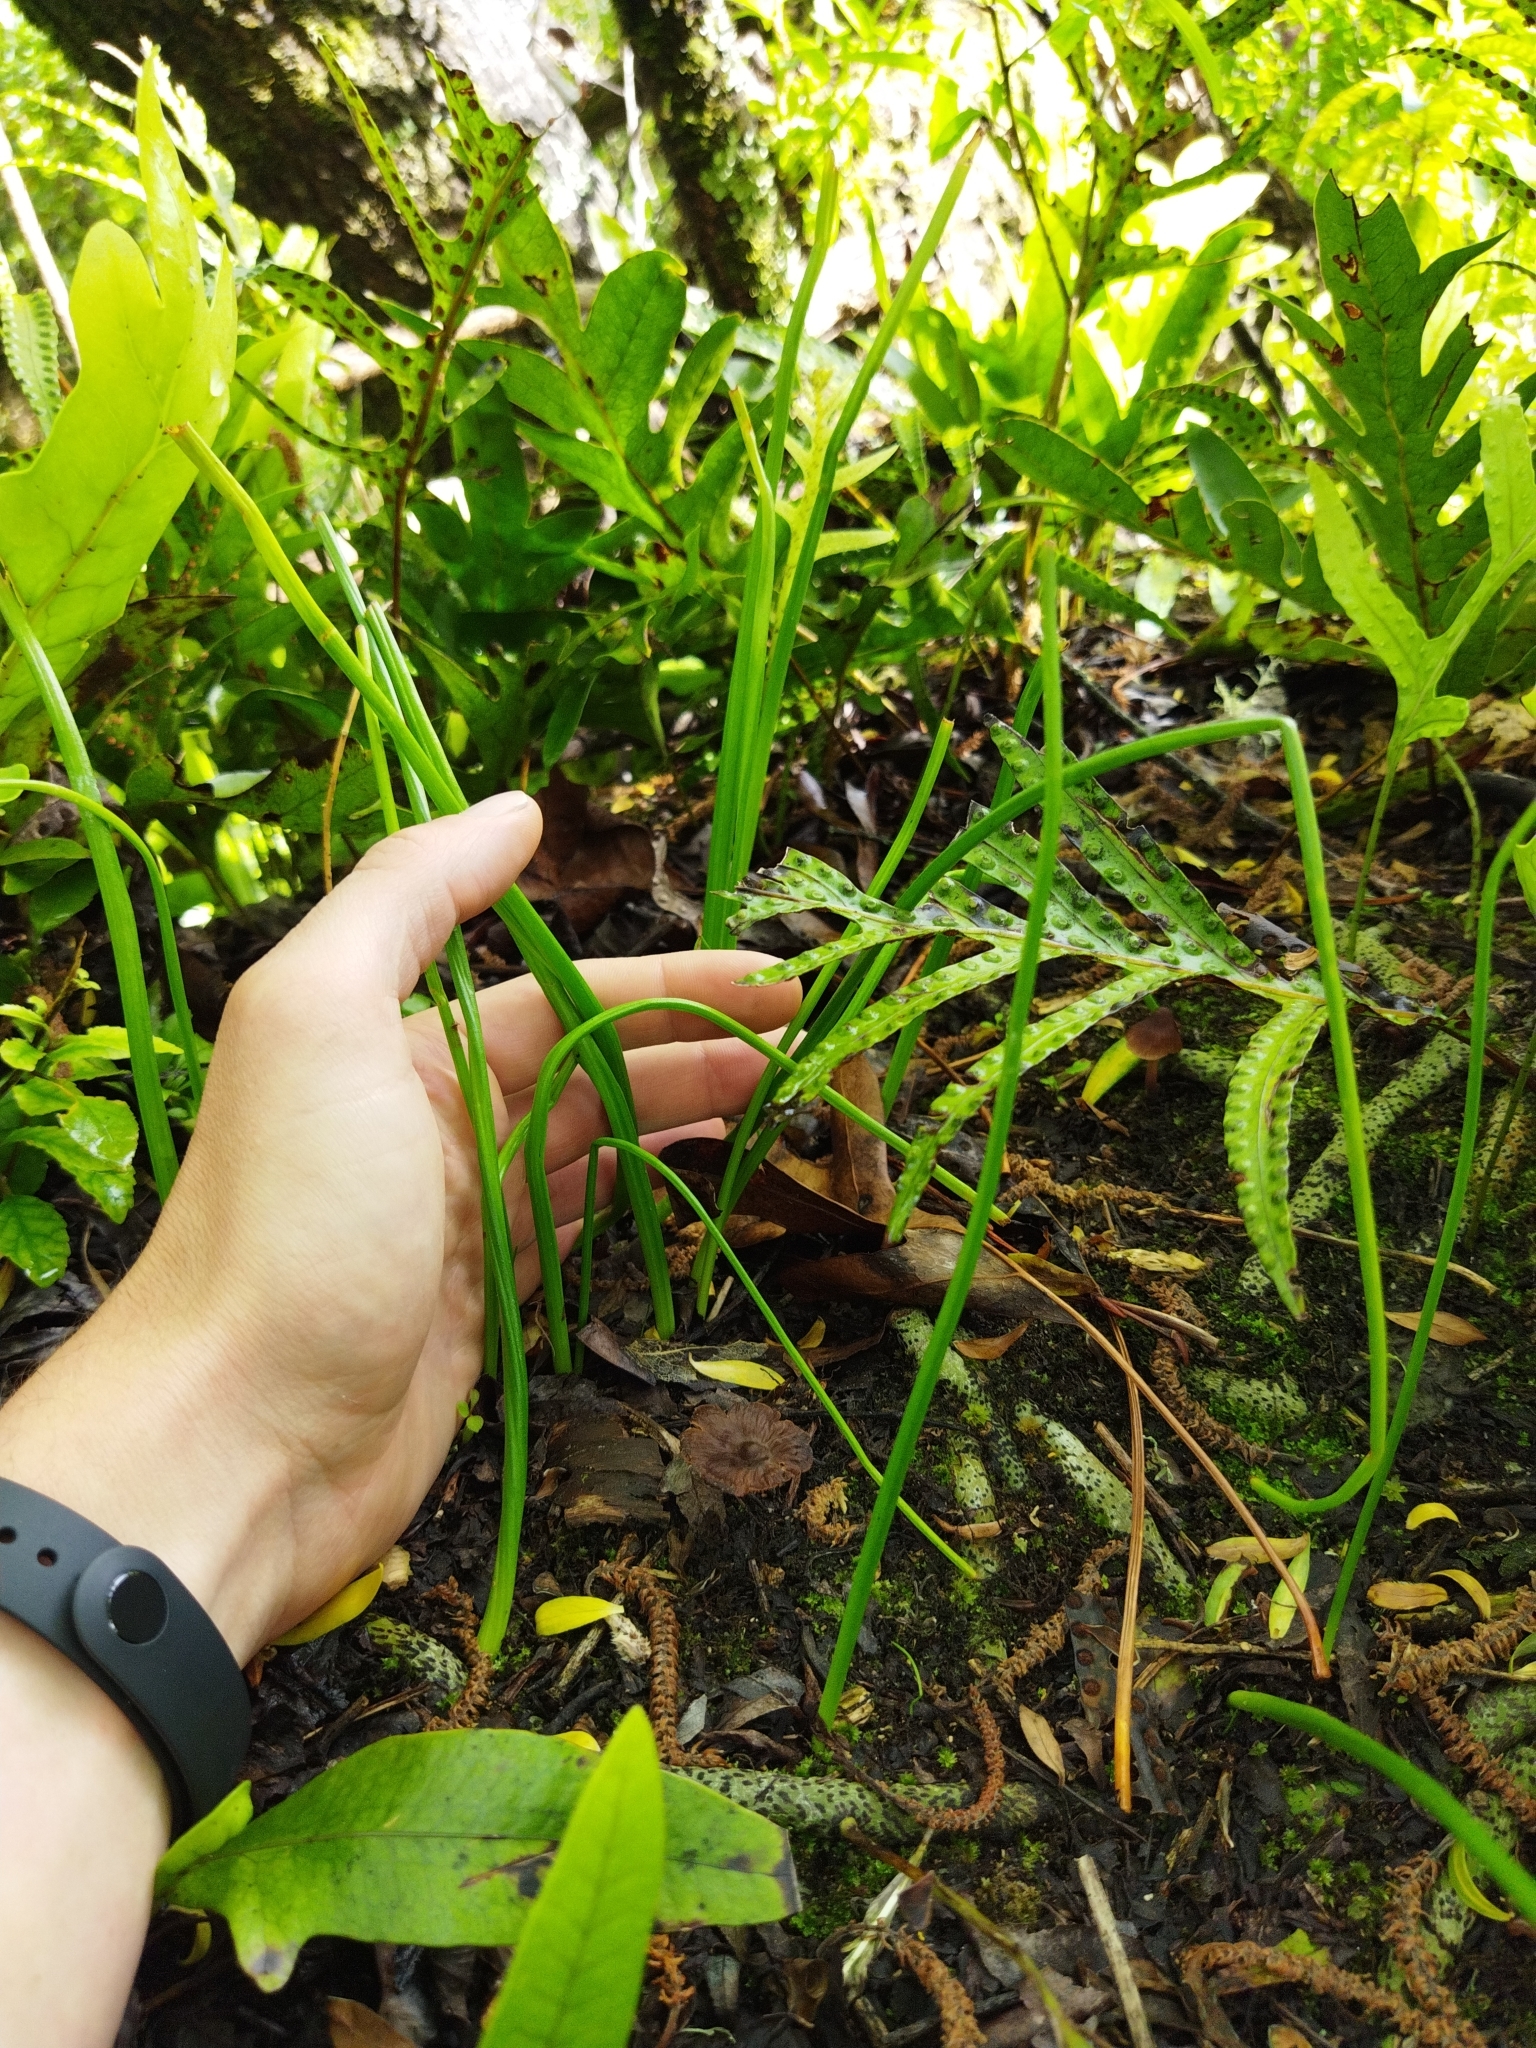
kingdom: Plantae
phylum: Tracheophyta
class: Liliopsida
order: Asparagales
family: Orchidaceae
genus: Microtis
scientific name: Microtis unifolia
